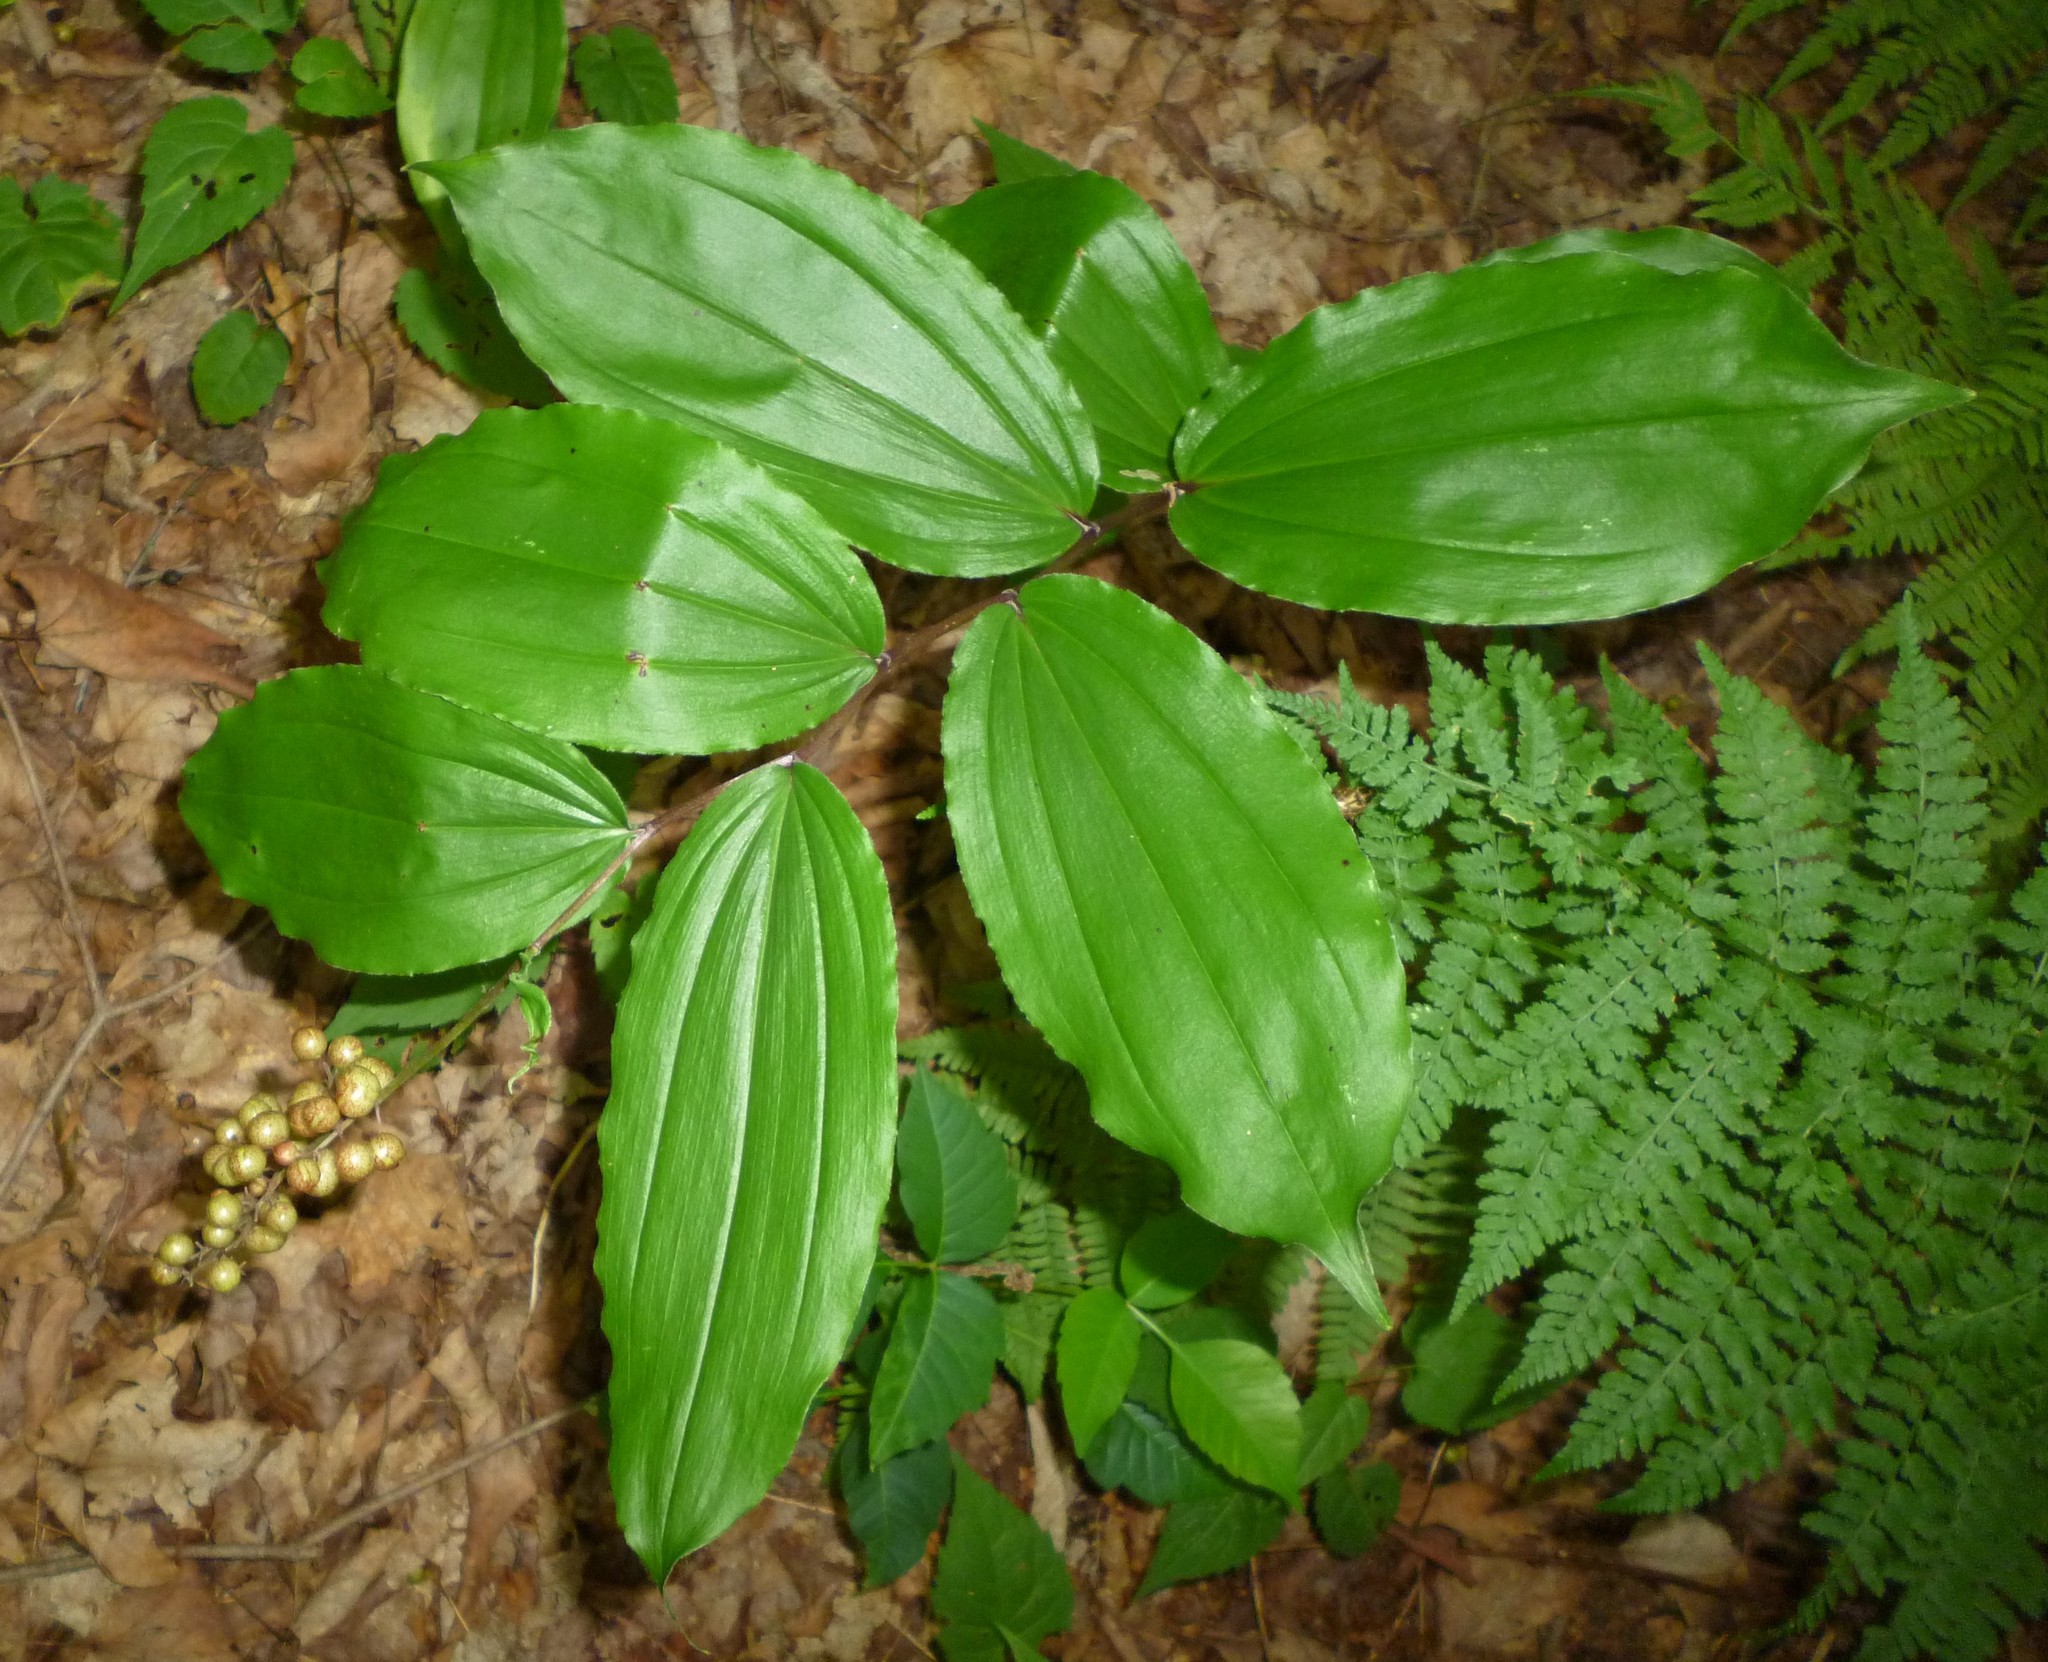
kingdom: Plantae
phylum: Tracheophyta
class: Liliopsida
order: Asparagales
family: Asparagaceae
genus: Maianthemum
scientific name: Maianthemum racemosum
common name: False spikenard
